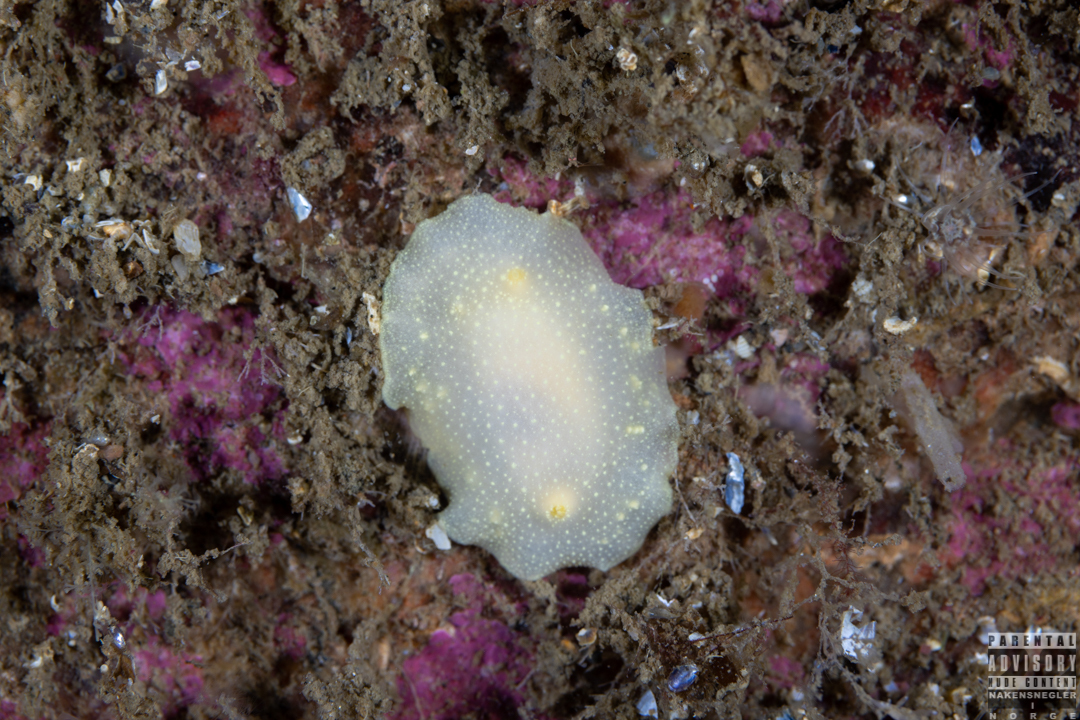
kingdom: Animalia
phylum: Mollusca
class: Gastropoda
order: Nudibranchia
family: Cadlinidae
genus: Cadlina
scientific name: Cadlina laevis
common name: White atlantic cadlina
